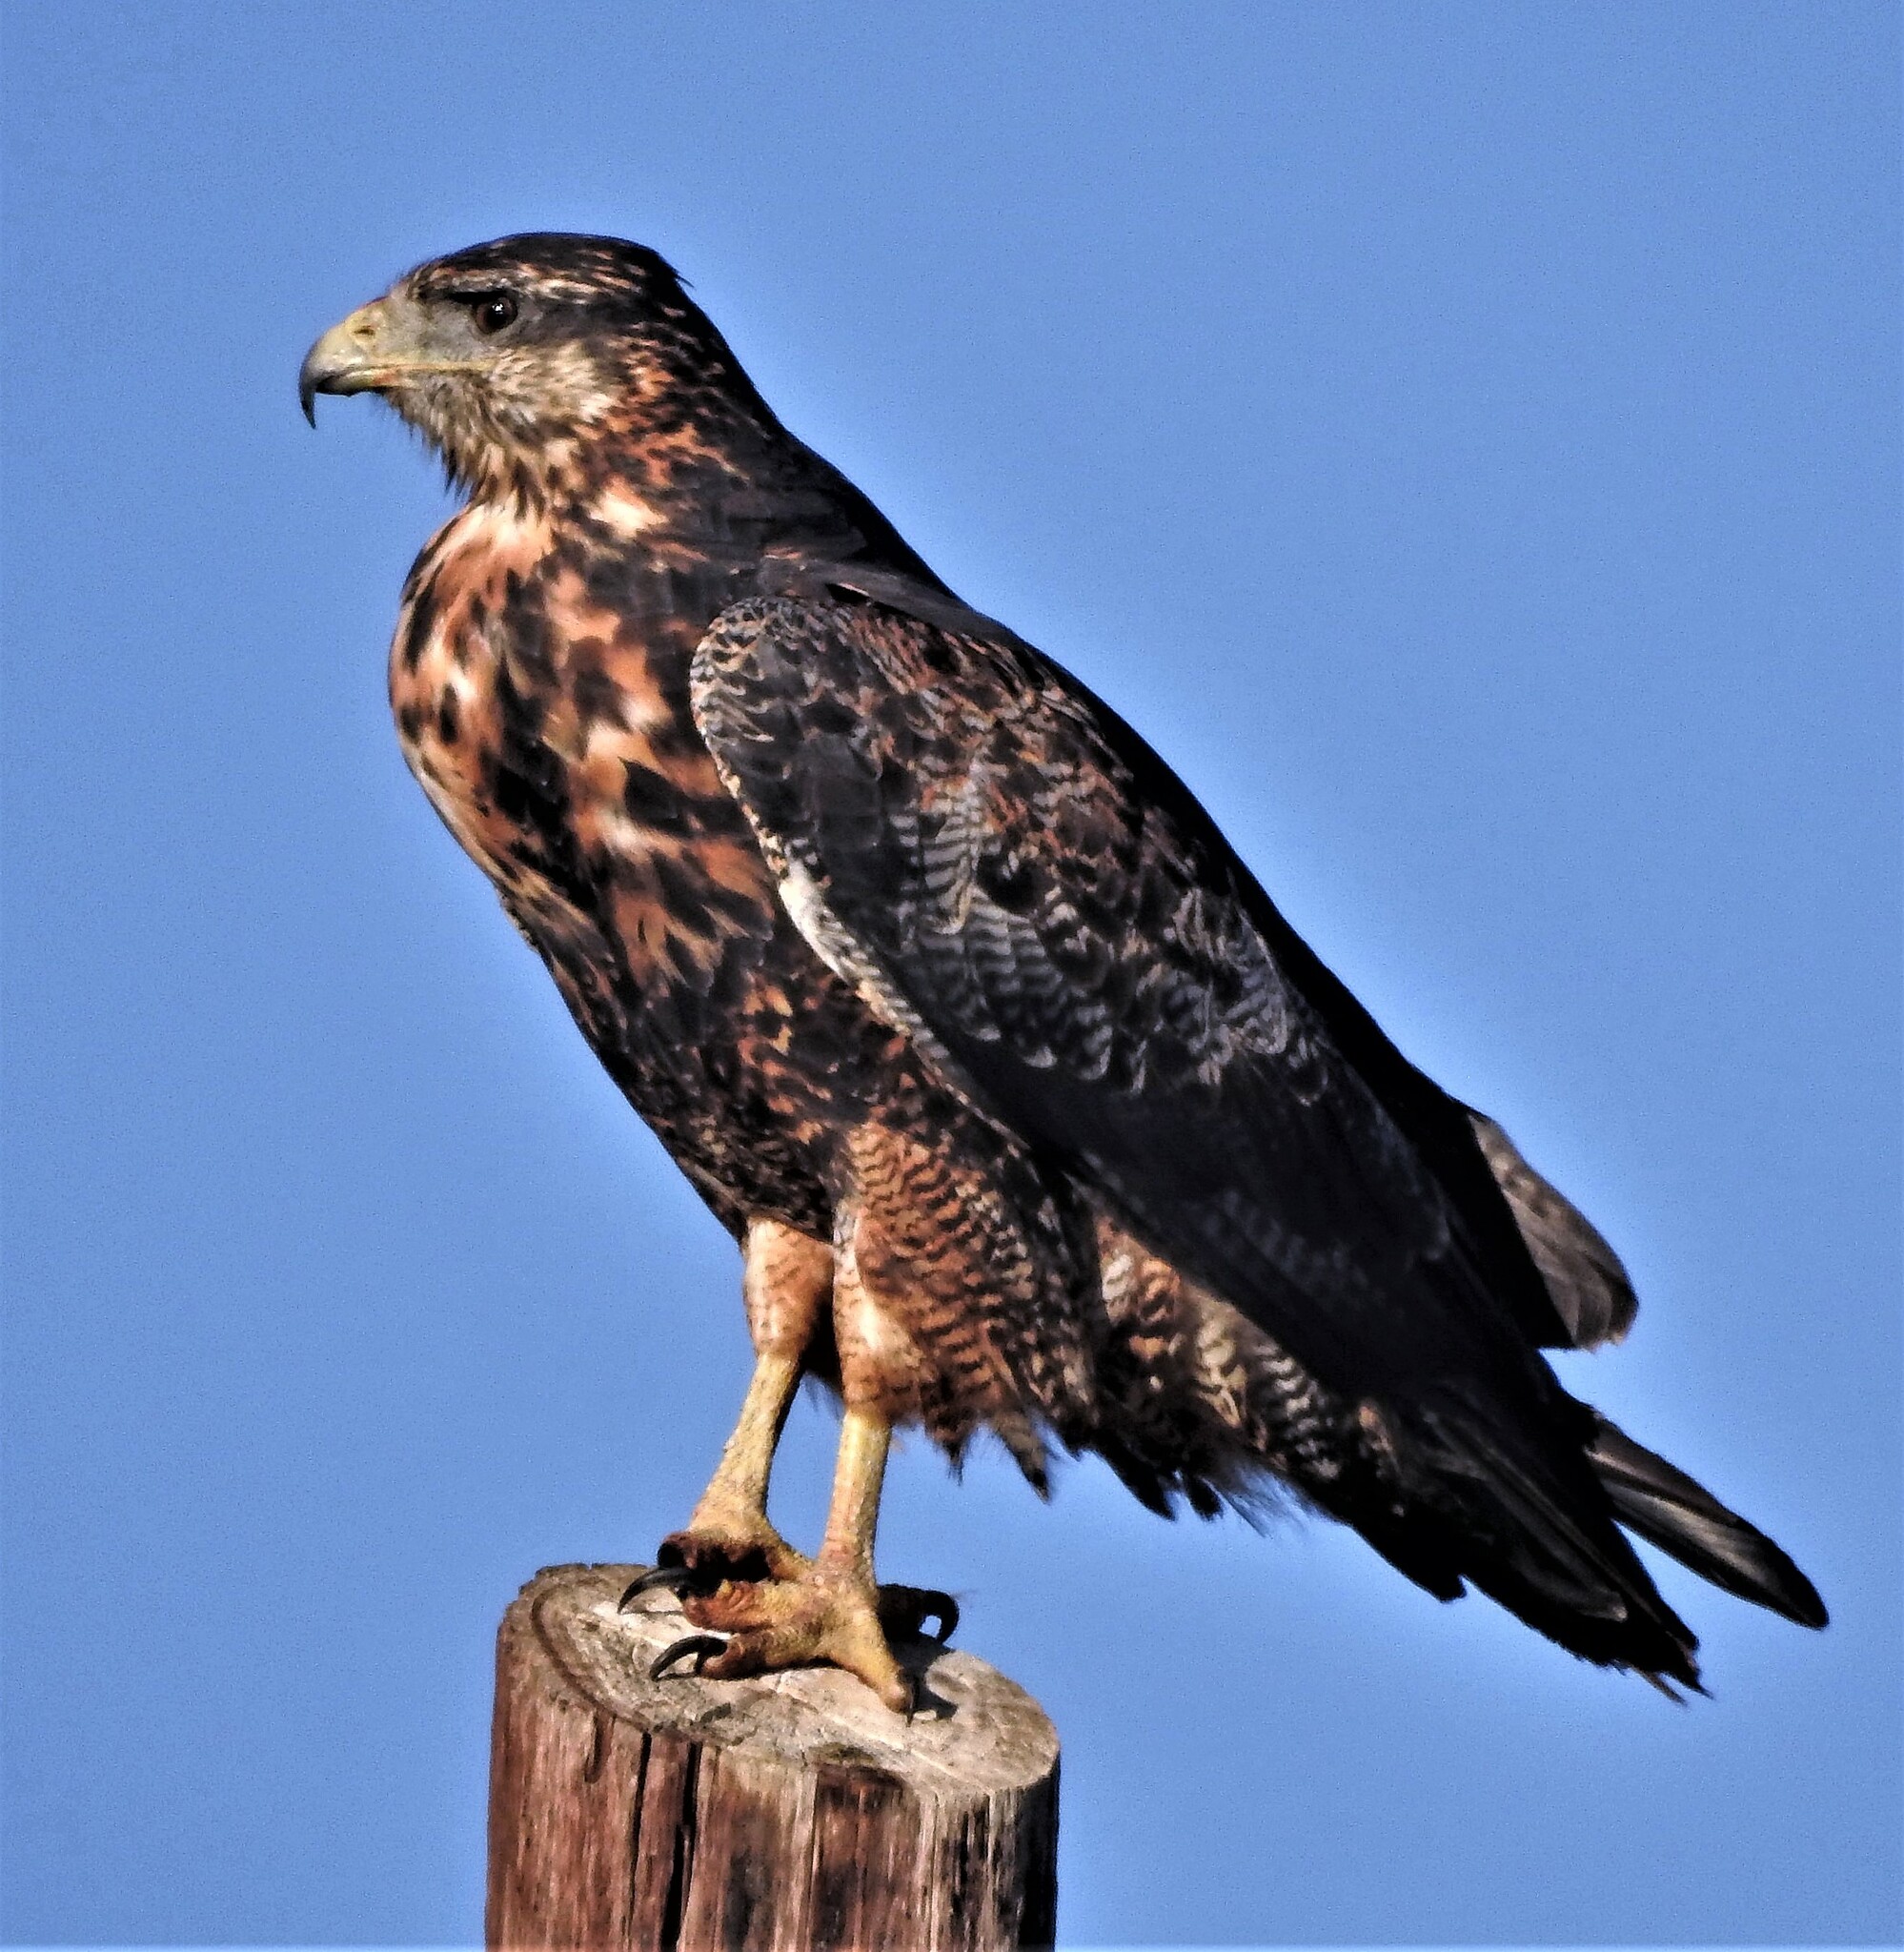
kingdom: Animalia
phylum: Chordata
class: Aves
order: Accipitriformes
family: Accipitridae
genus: Geranoaetus
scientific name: Geranoaetus melanoleucus
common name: Black-chested buzzard-eagle
